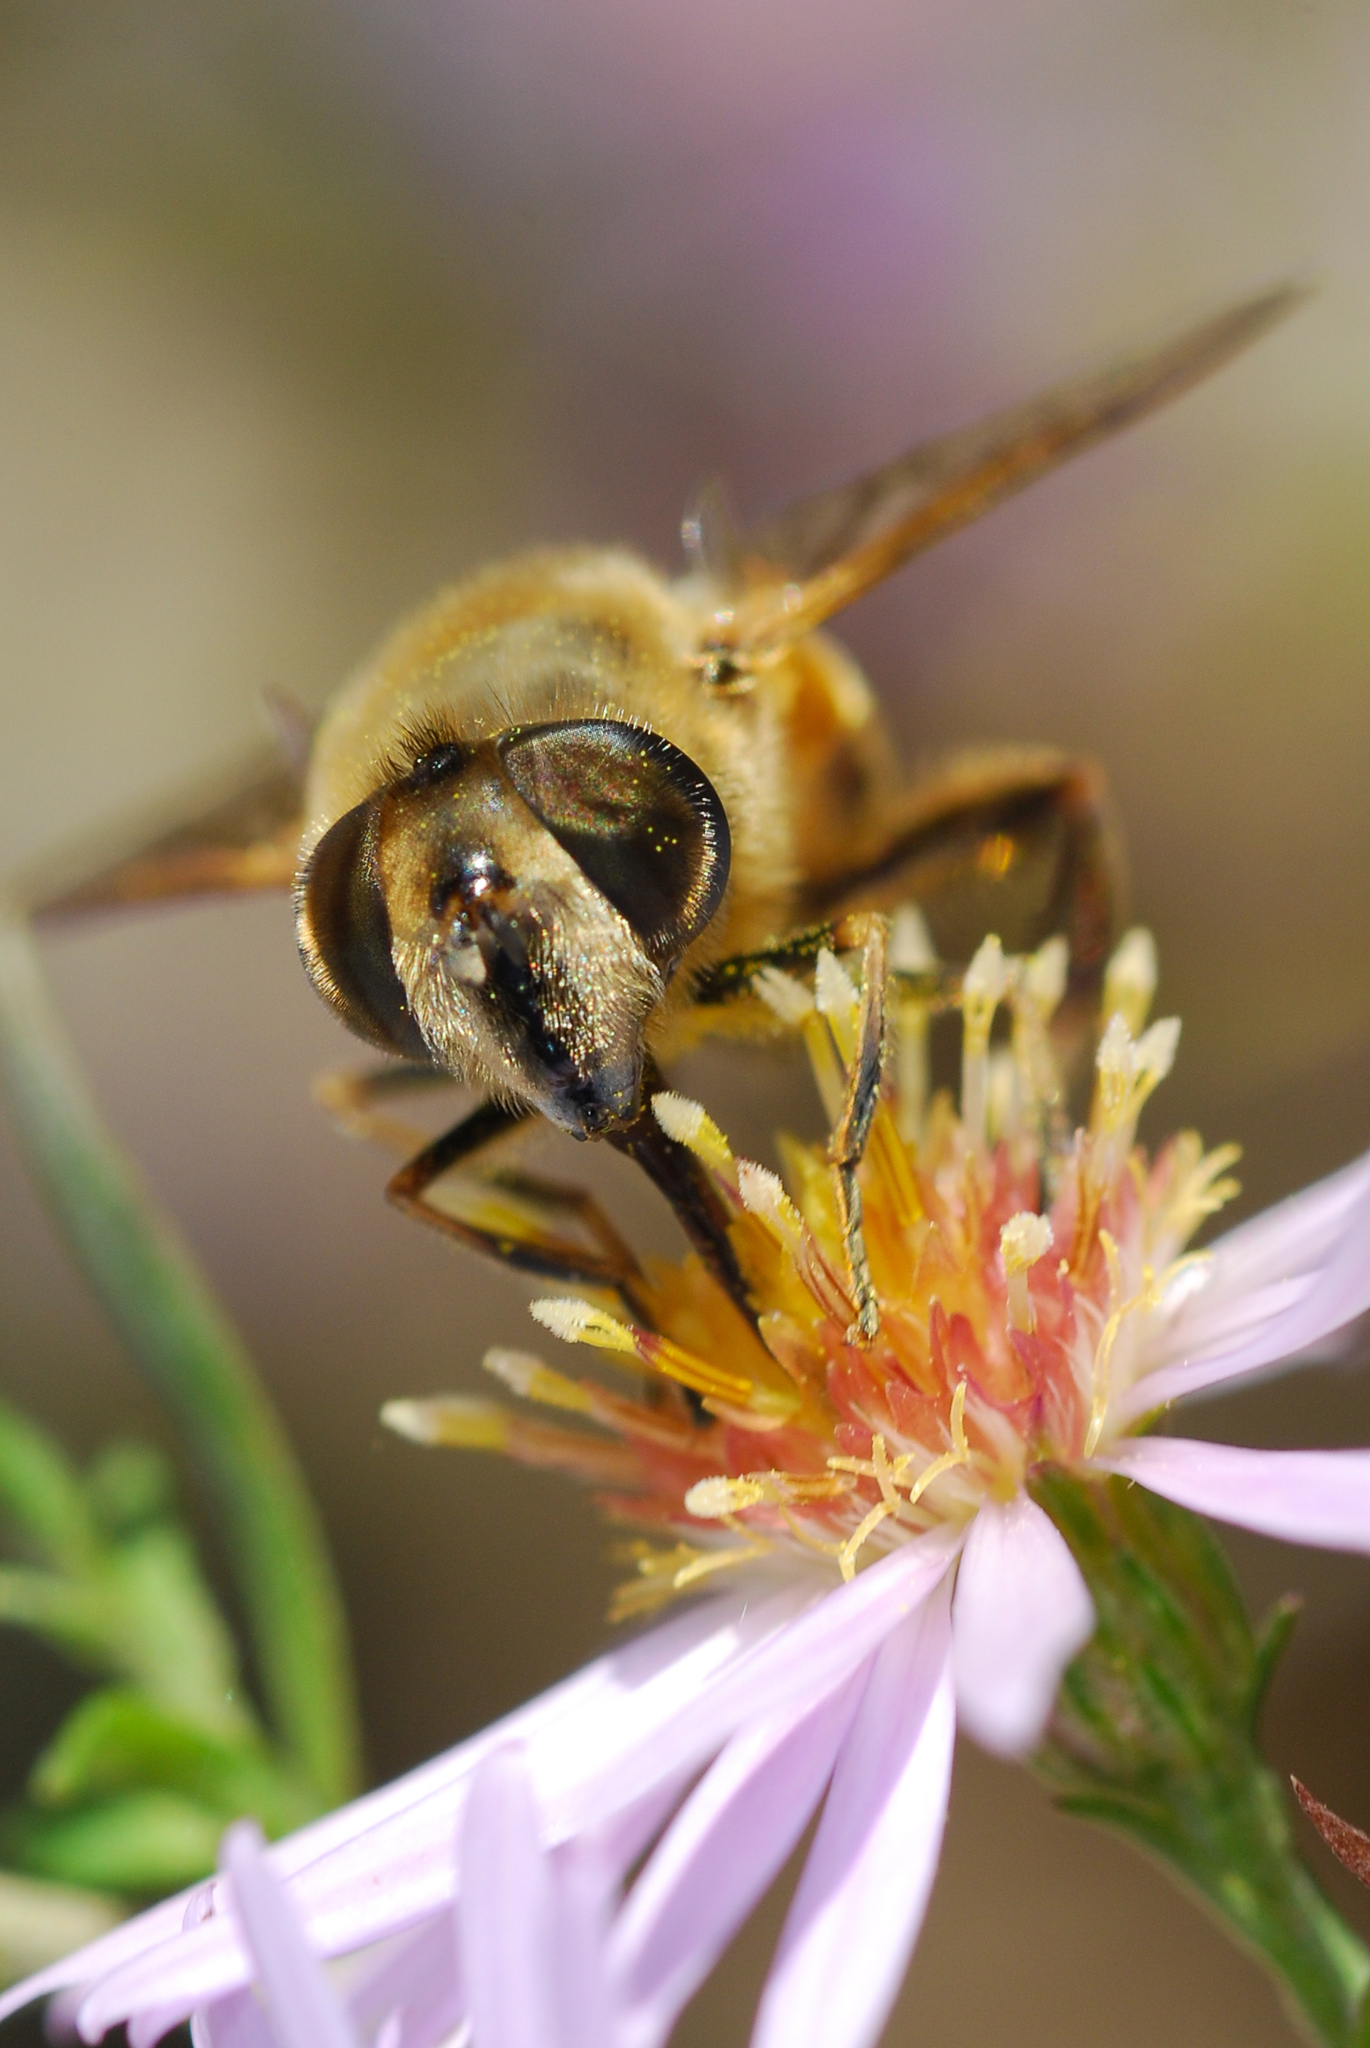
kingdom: Animalia
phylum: Arthropoda
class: Insecta
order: Diptera
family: Syrphidae
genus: Eristalis
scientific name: Eristalis tenax
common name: Drone fly
